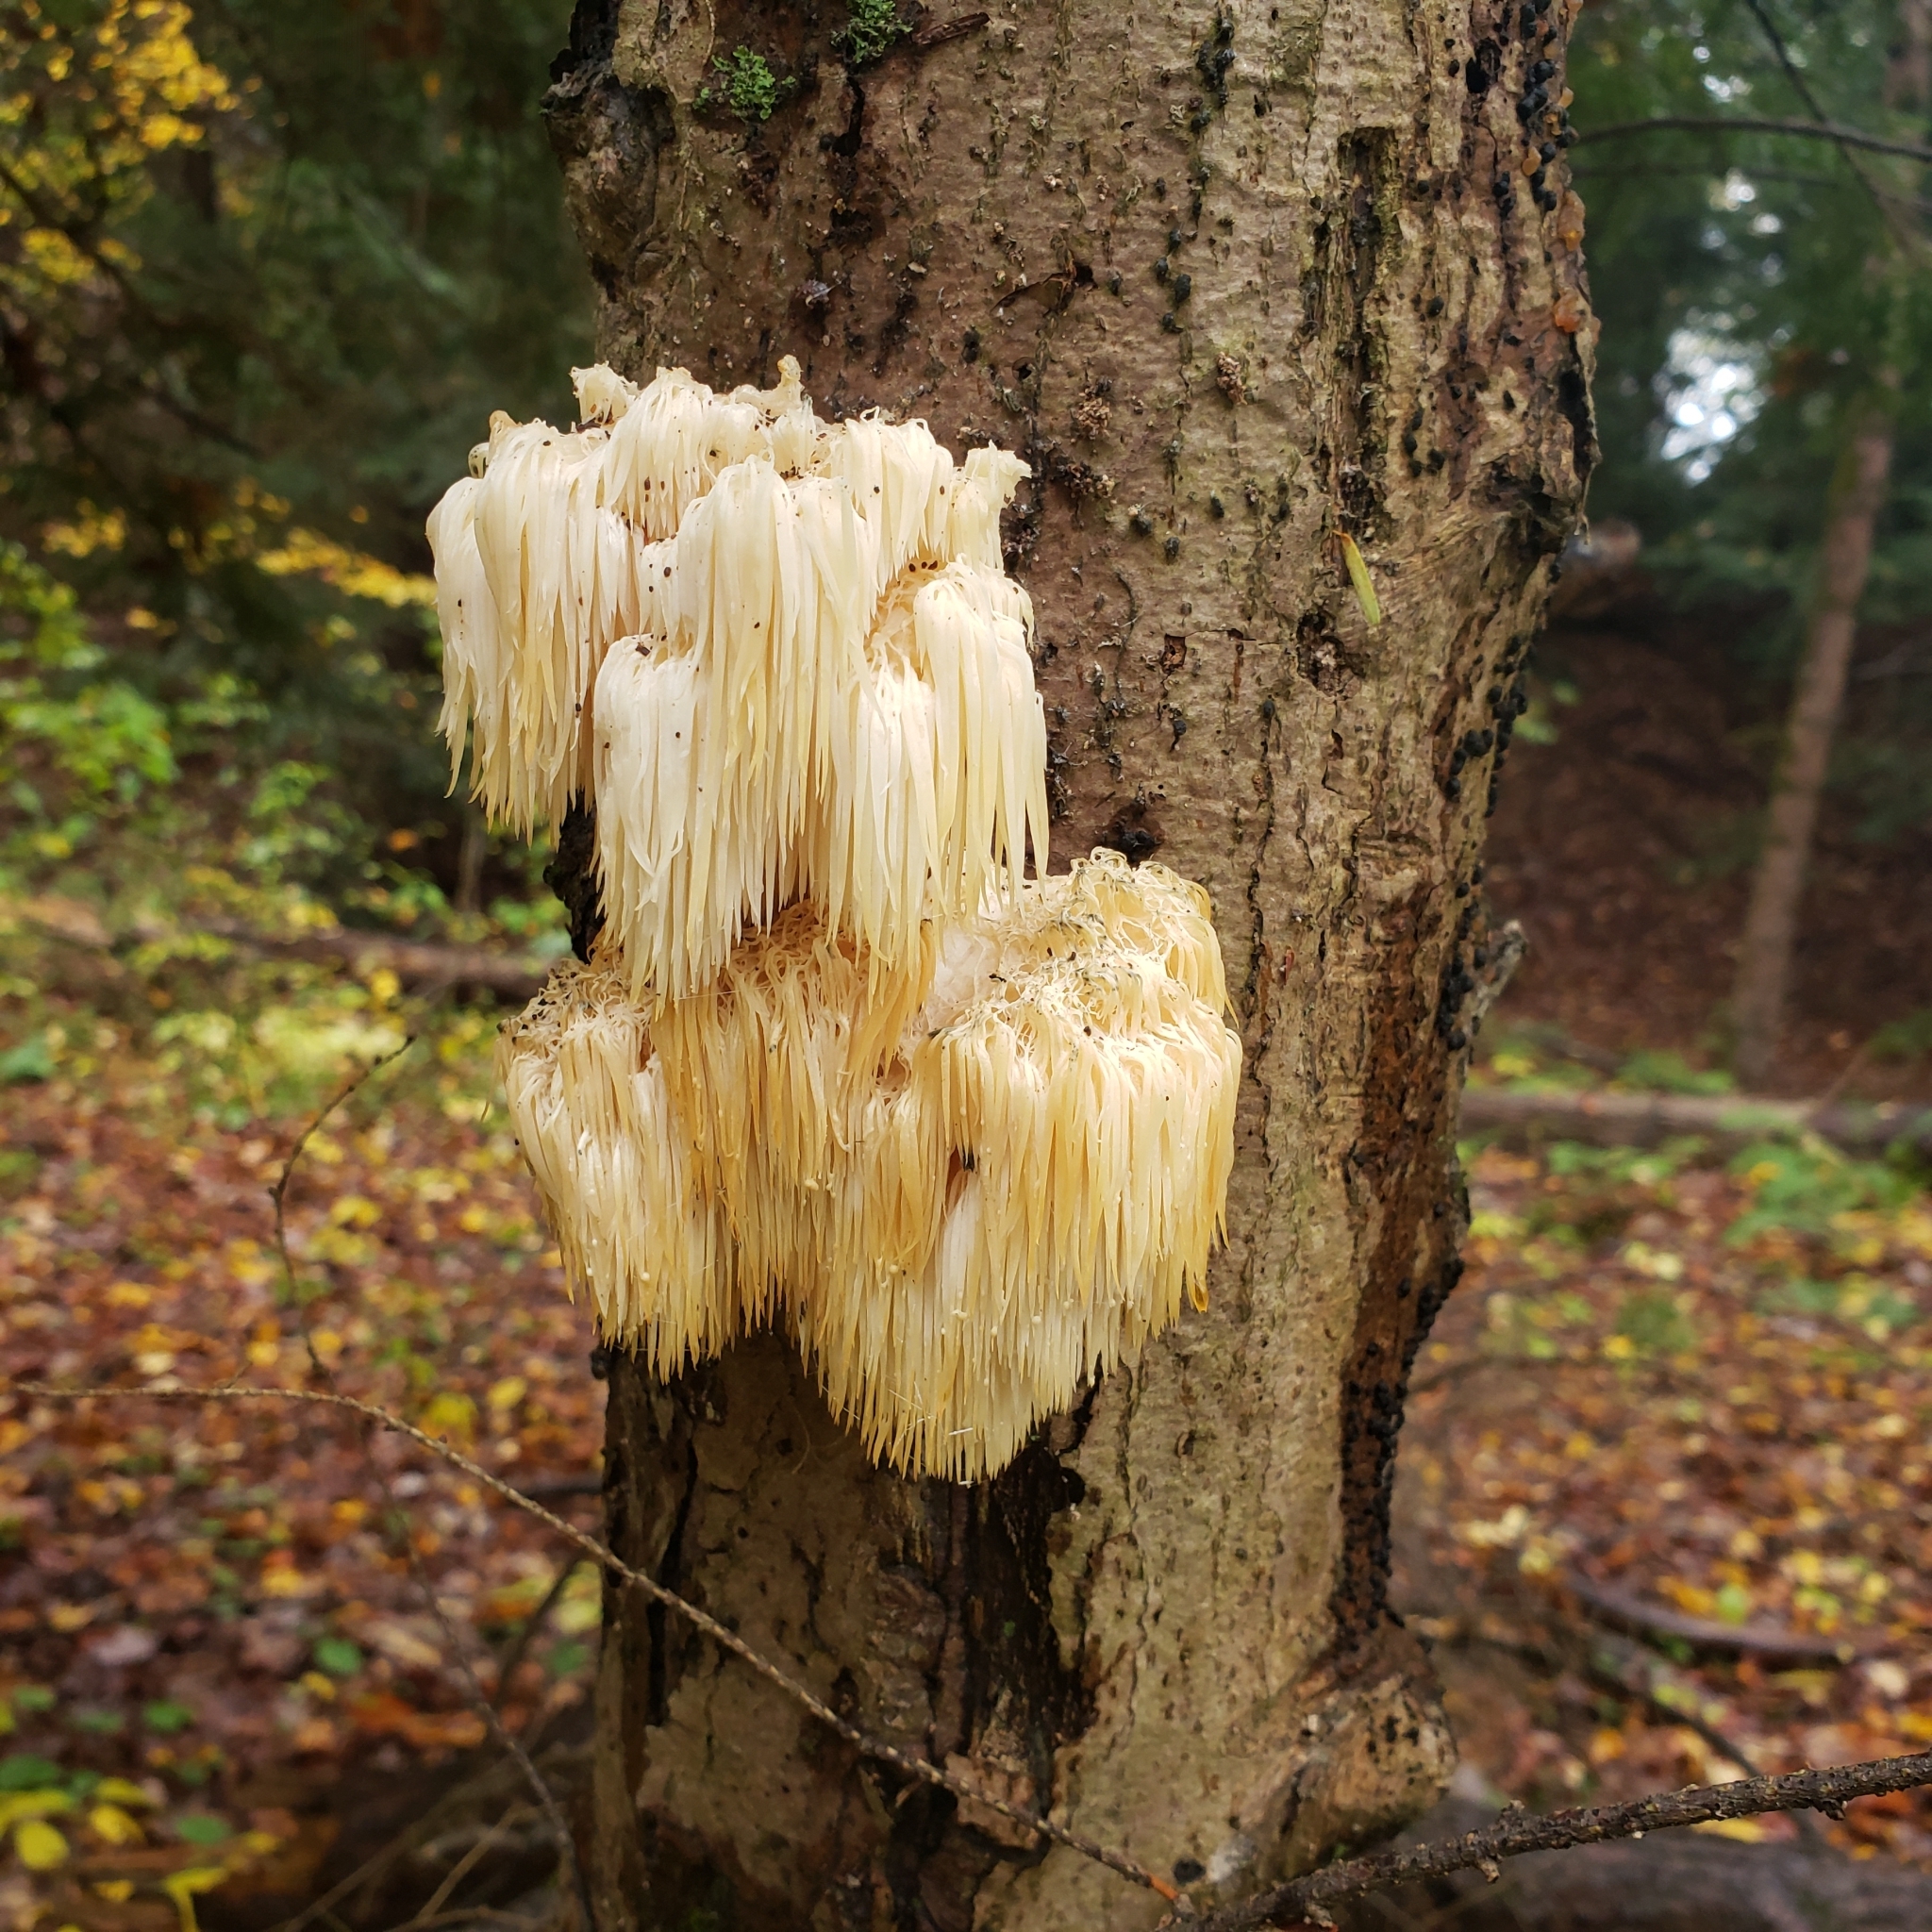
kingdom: Fungi
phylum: Basidiomycota
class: Agaricomycetes
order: Russulales
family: Hericiaceae
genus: Hericium
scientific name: Hericium americanum
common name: Bear's head tooth
